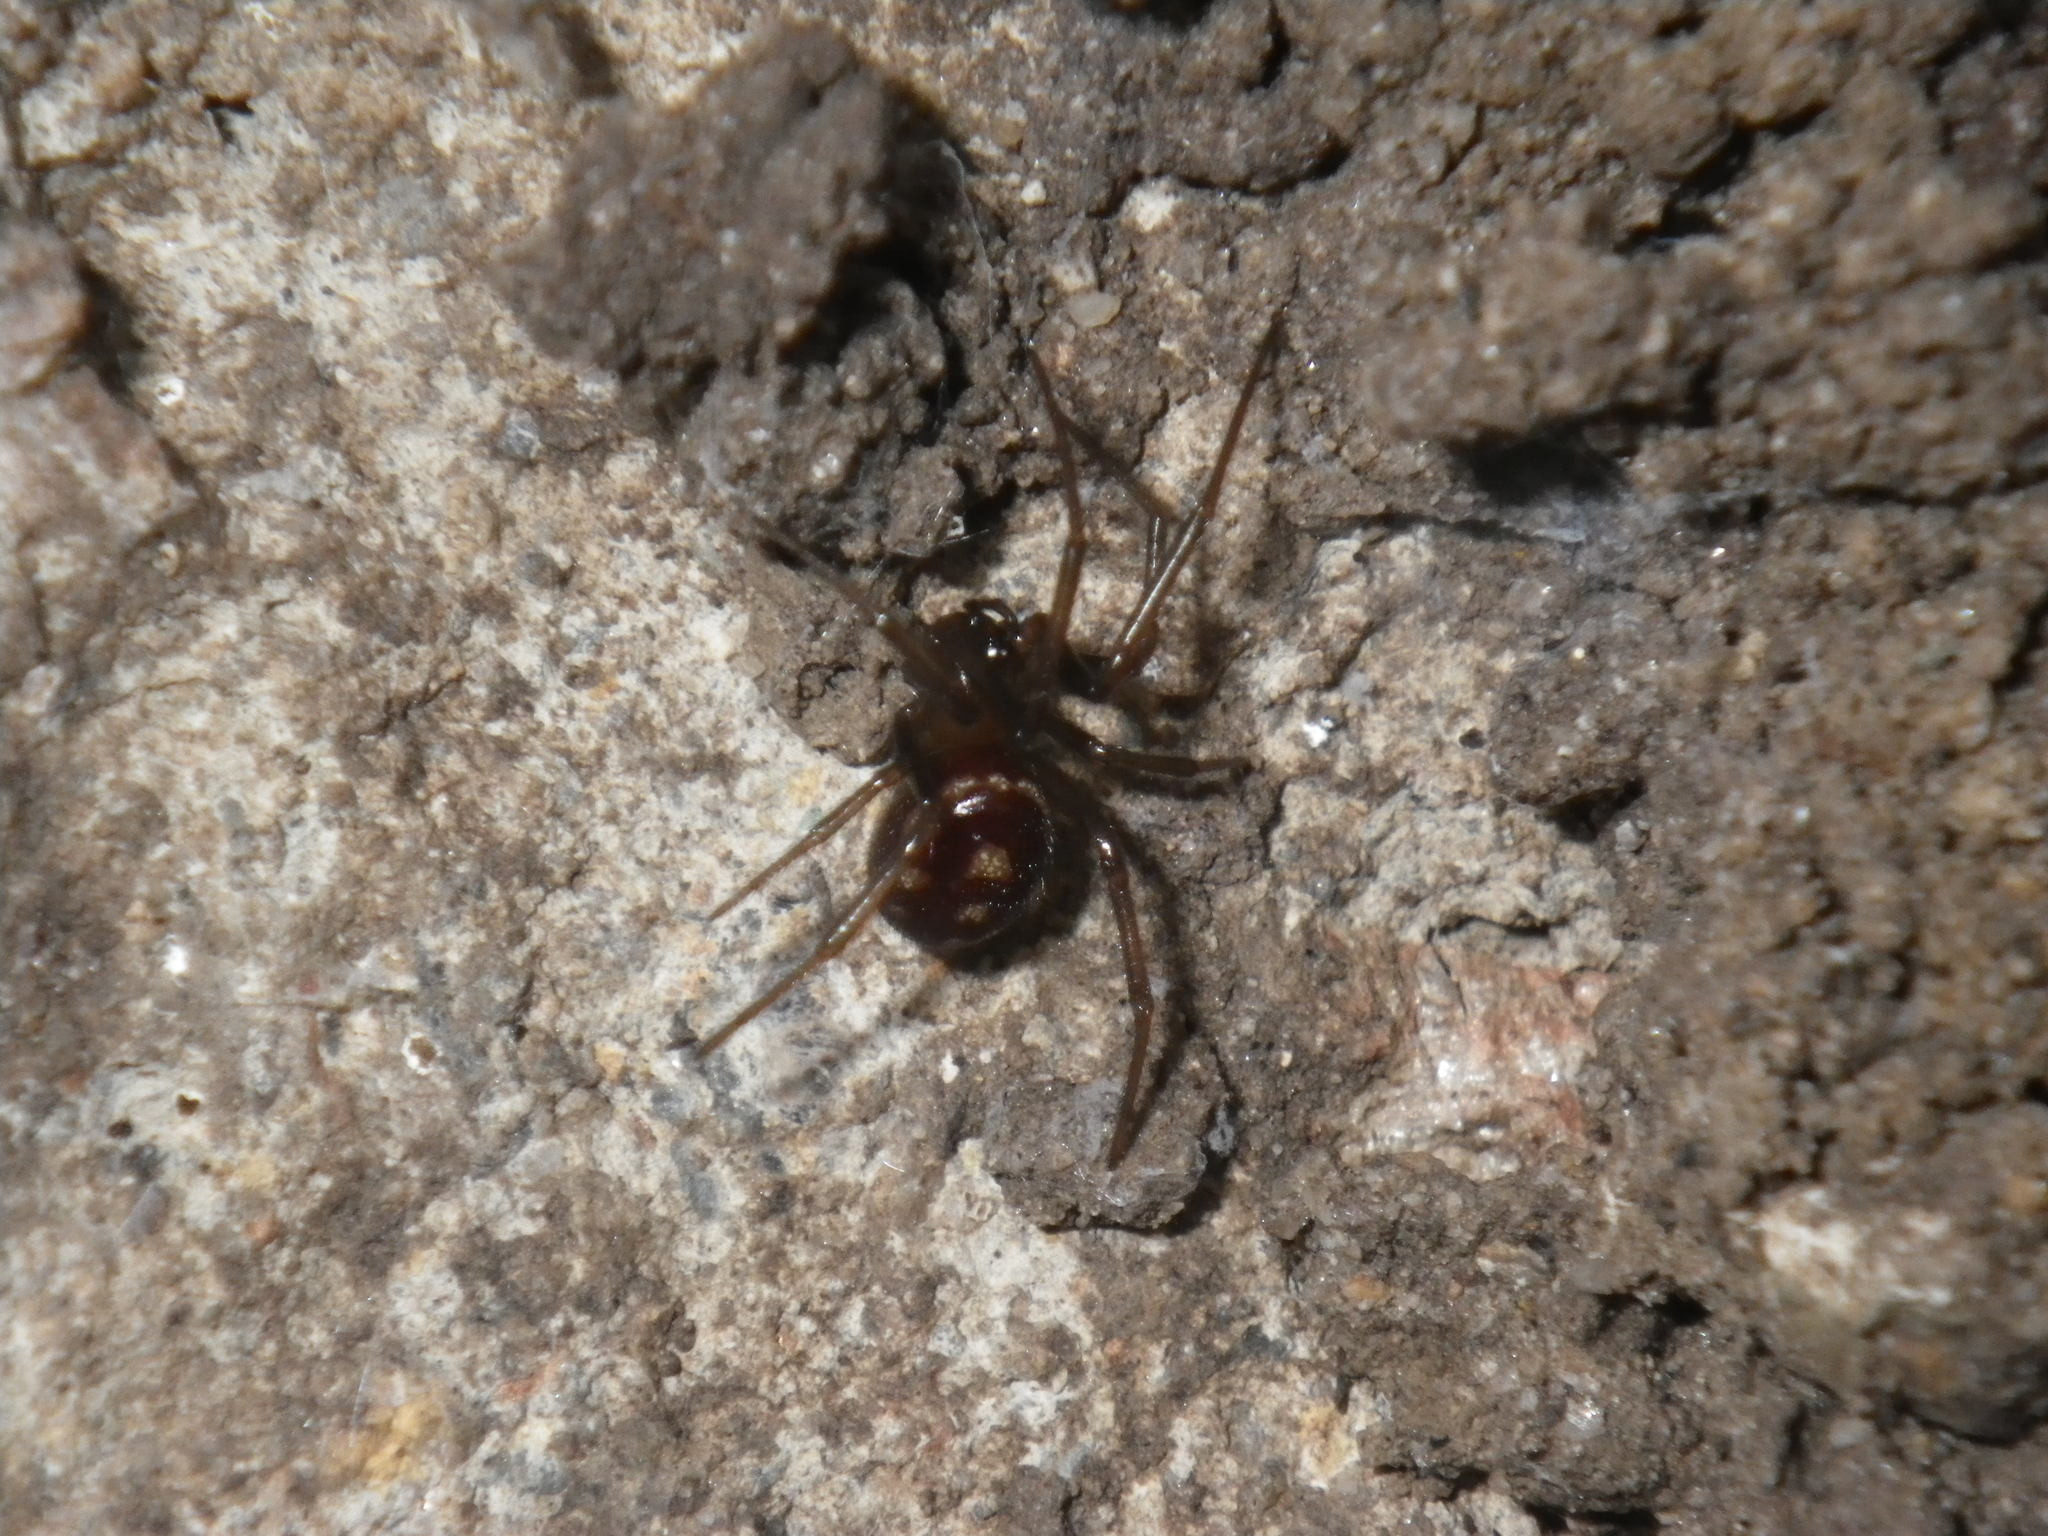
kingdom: Animalia
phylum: Arthropoda
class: Arachnida
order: Araneae
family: Theridiidae
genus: Steatoda
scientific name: Steatoda grossa
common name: False black widow
